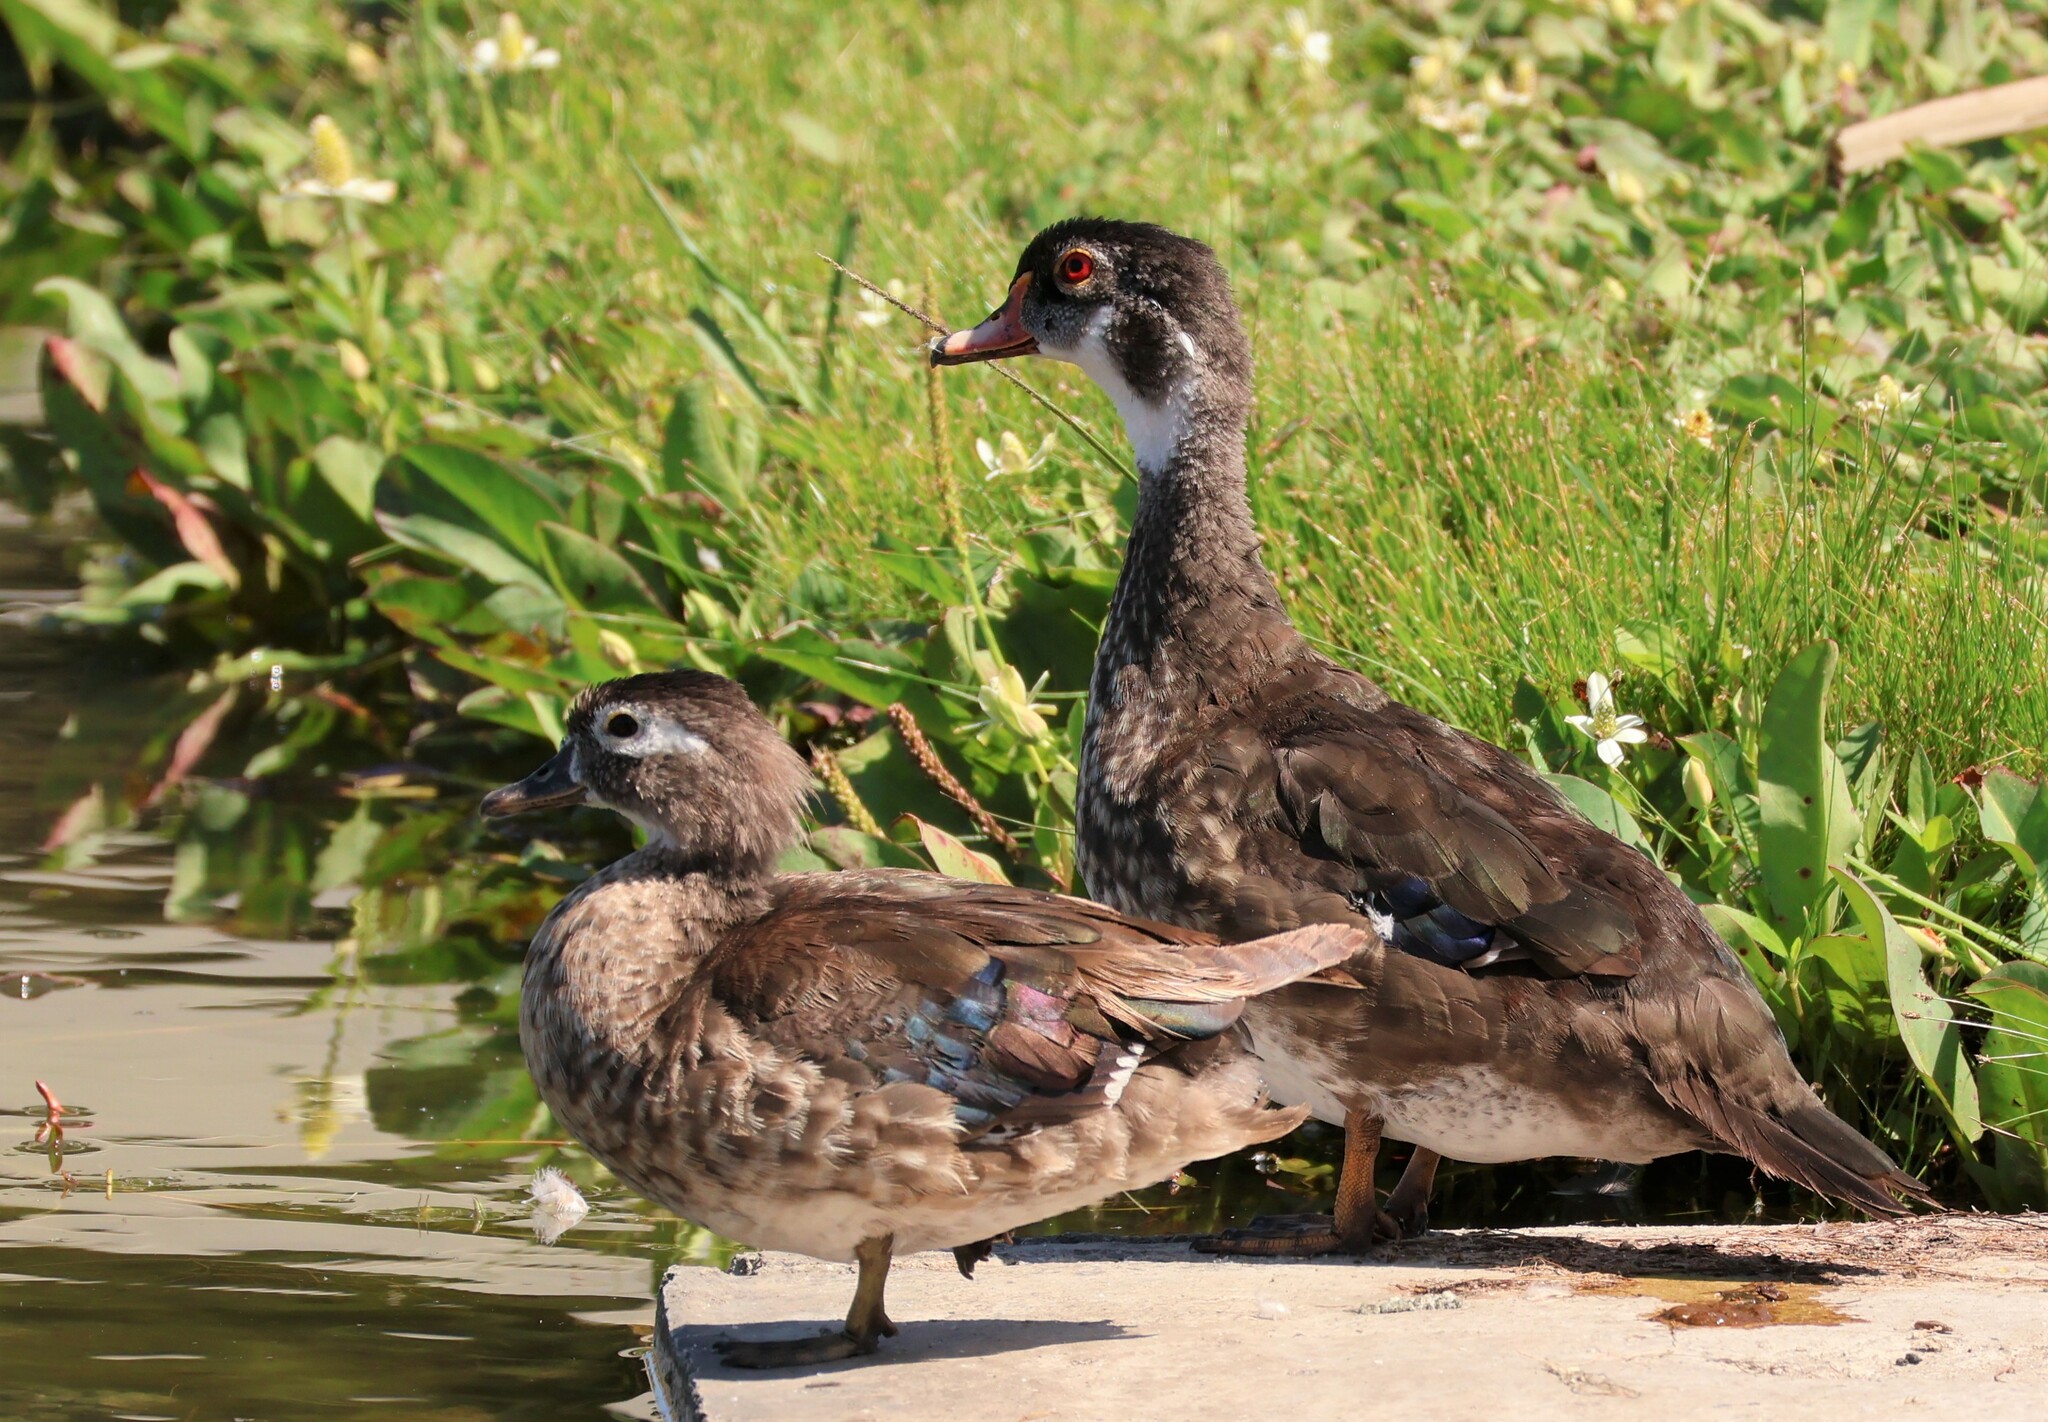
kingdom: Animalia
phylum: Chordata
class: Aves
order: Anseriformes
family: Anatidae
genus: Aix
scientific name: Aix sponsa
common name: Wood duck
